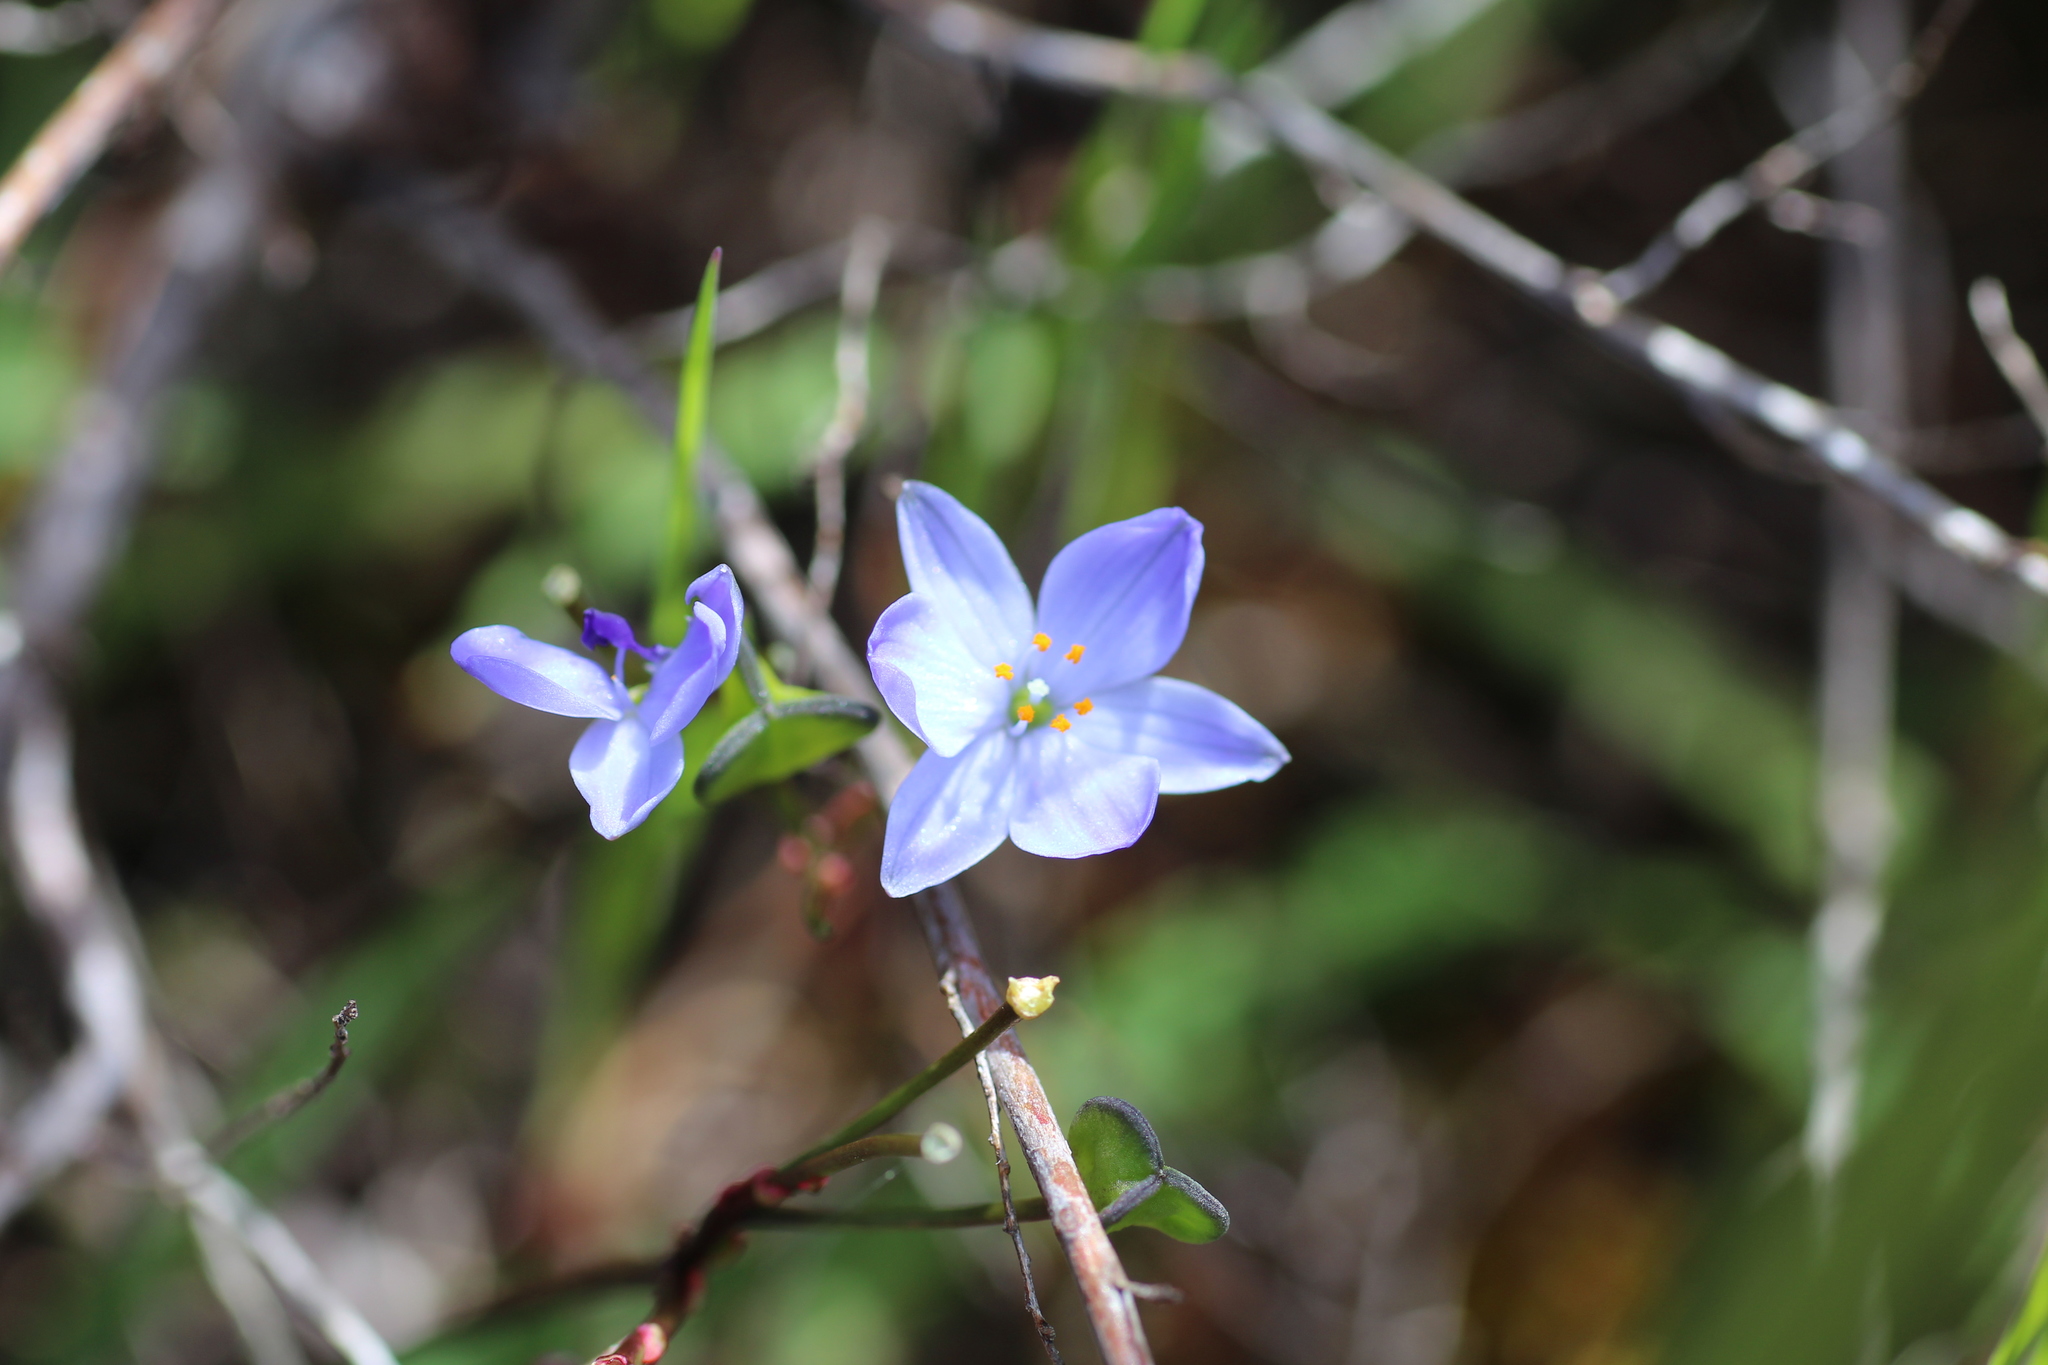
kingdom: Plantae
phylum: Tracheophyta
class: Liliopsida
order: Asparagales
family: Asphodelaceae
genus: Chamaescilla
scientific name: Chamaescilla corymbosa
